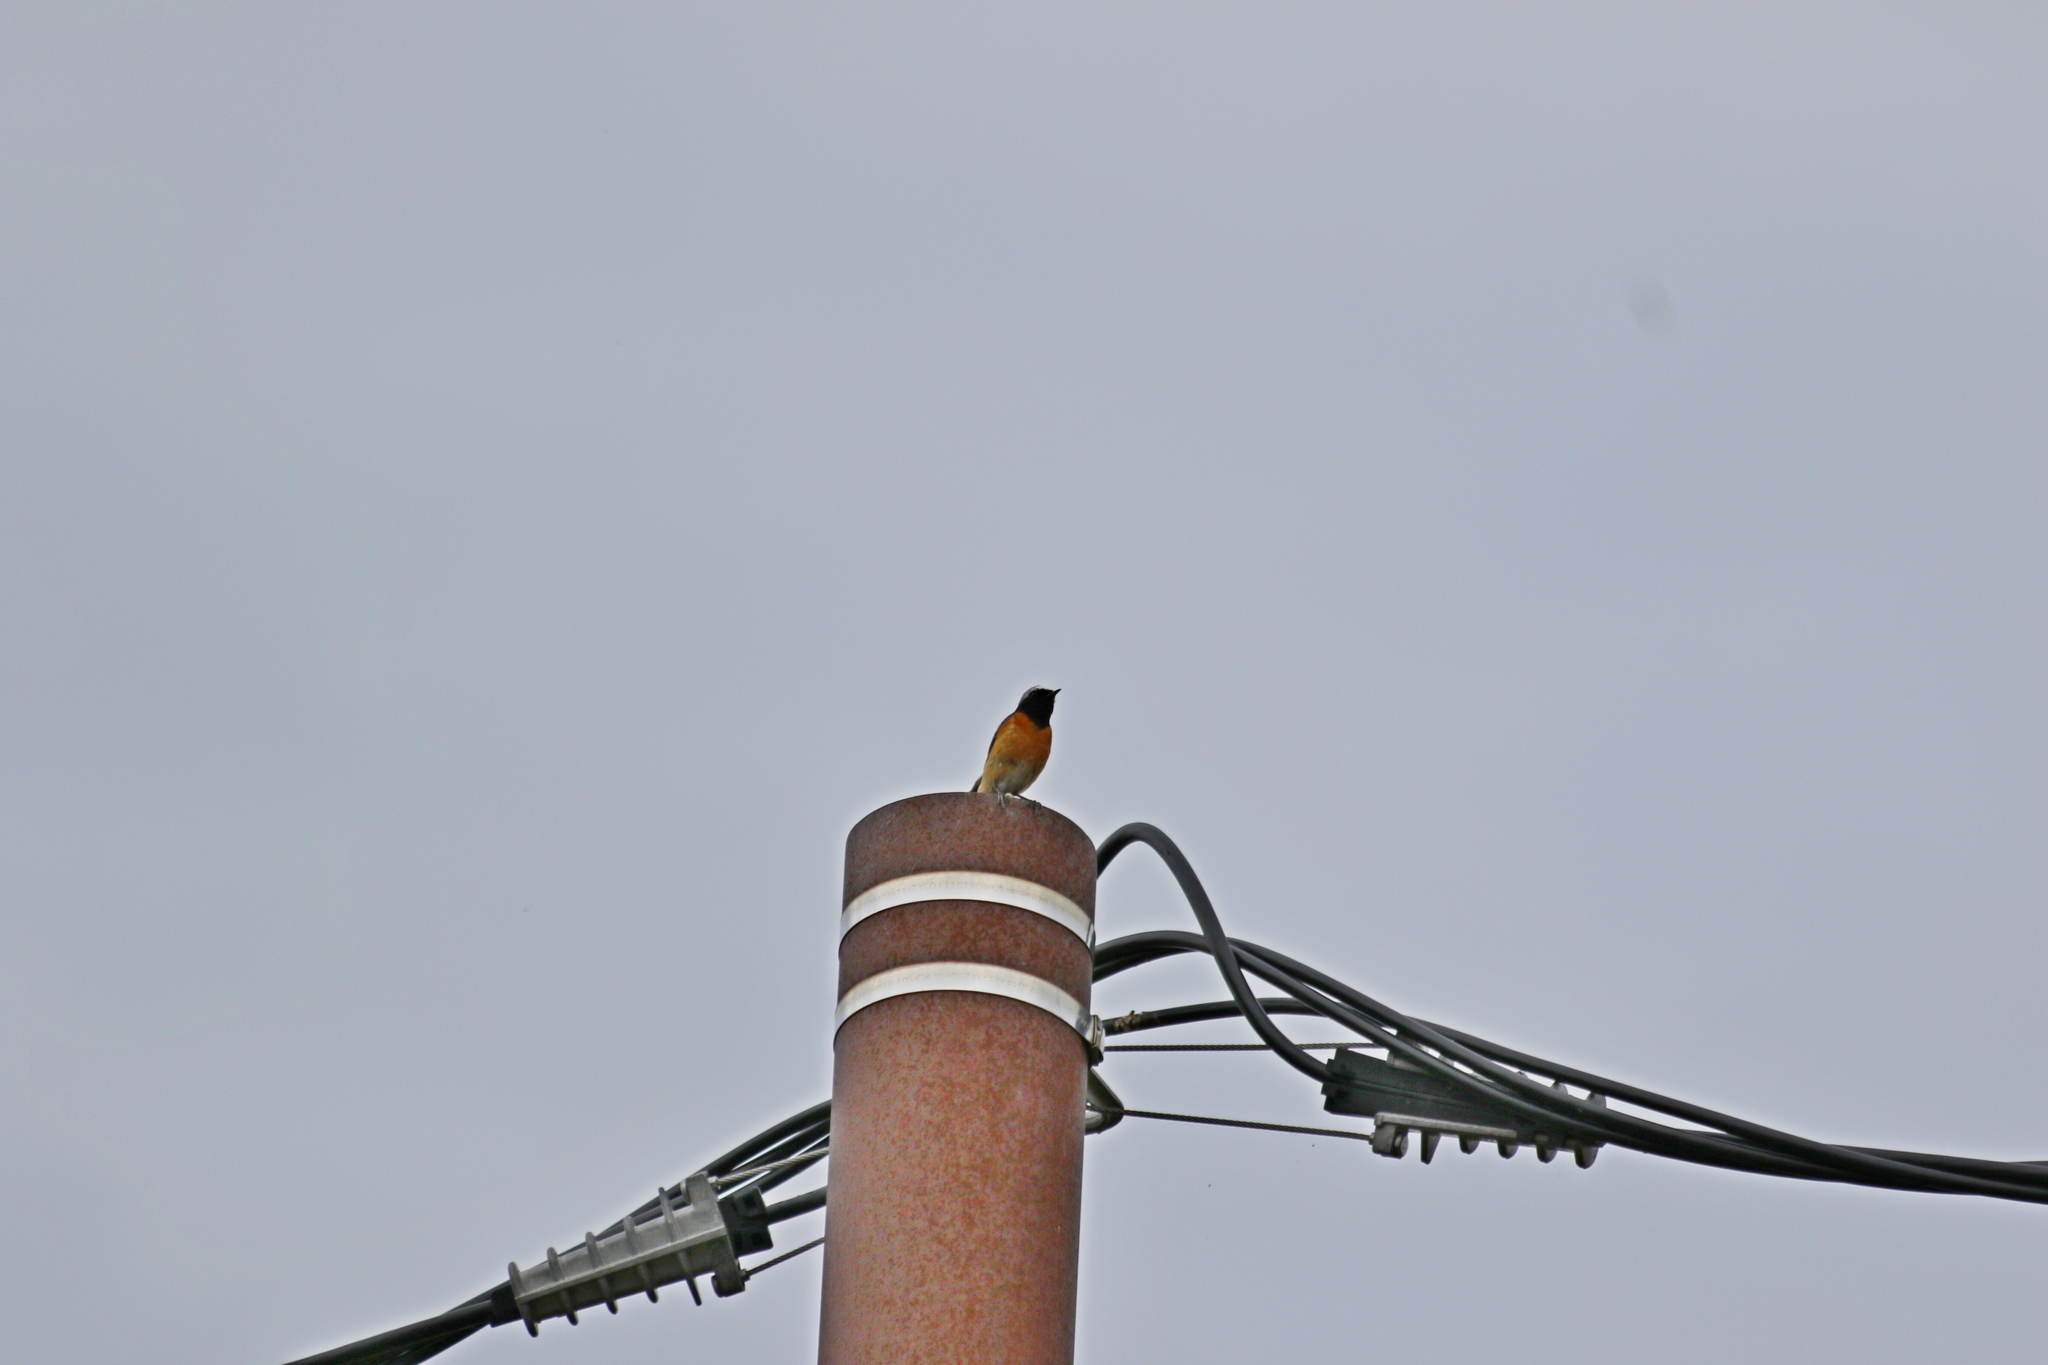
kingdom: Animalia
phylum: Chordata
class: Aves
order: Passeriformes
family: Muscicapidae
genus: Phoenicurus
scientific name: Phoenicurus phoenicurus
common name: Common redstart
